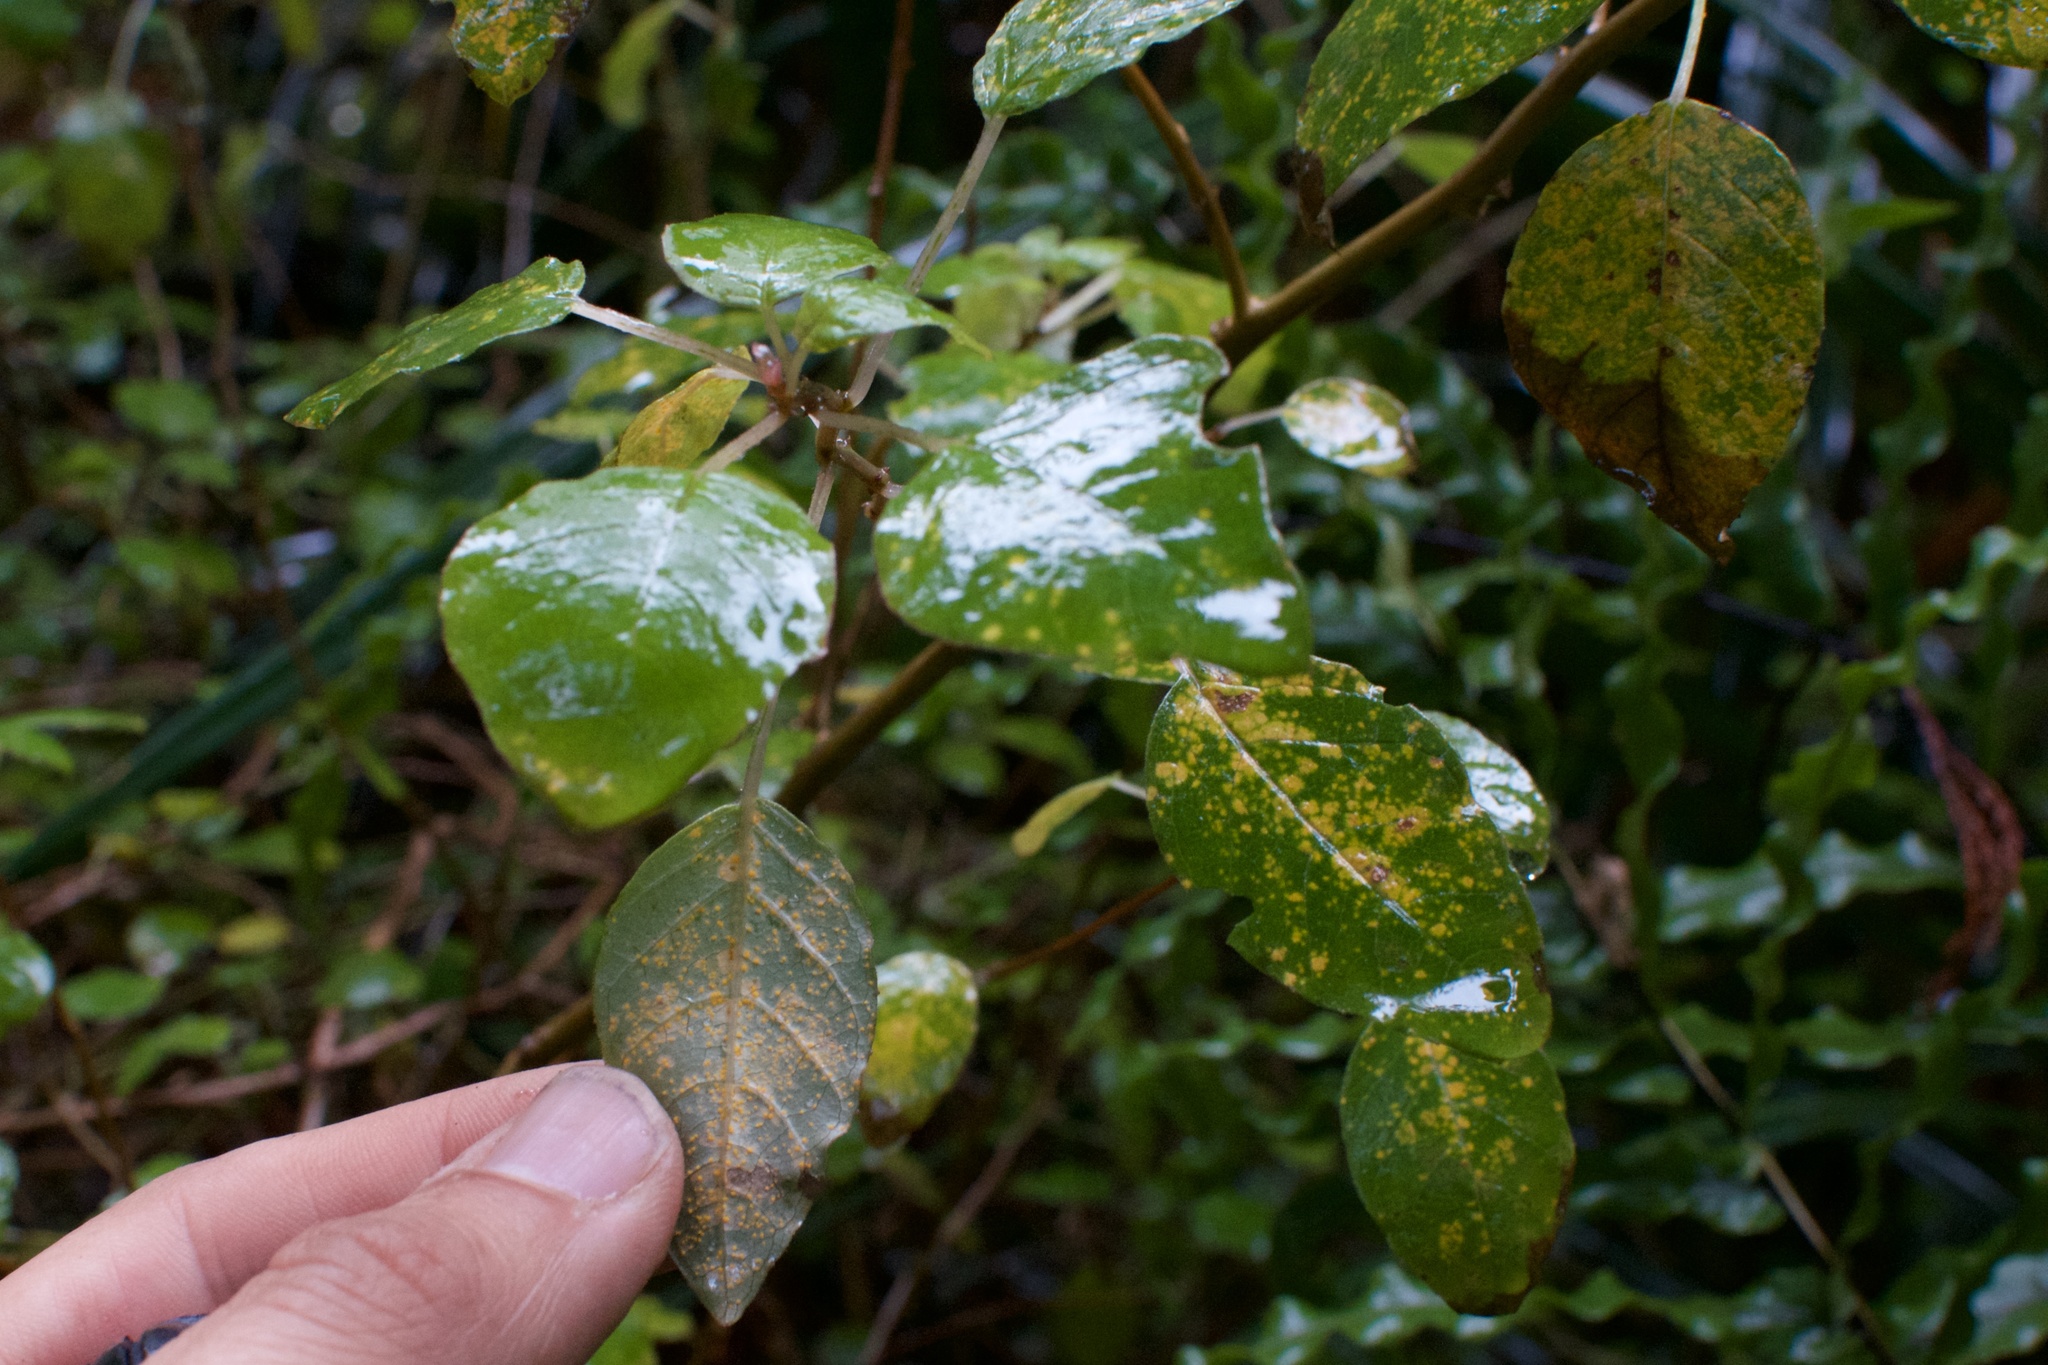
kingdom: Fungi
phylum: Basidiomycota
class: Pucciniomycetes
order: Pucciniales
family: Mikronegeriaceae
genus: Mikronegeria
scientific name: Mikronegeria fuchsiae
